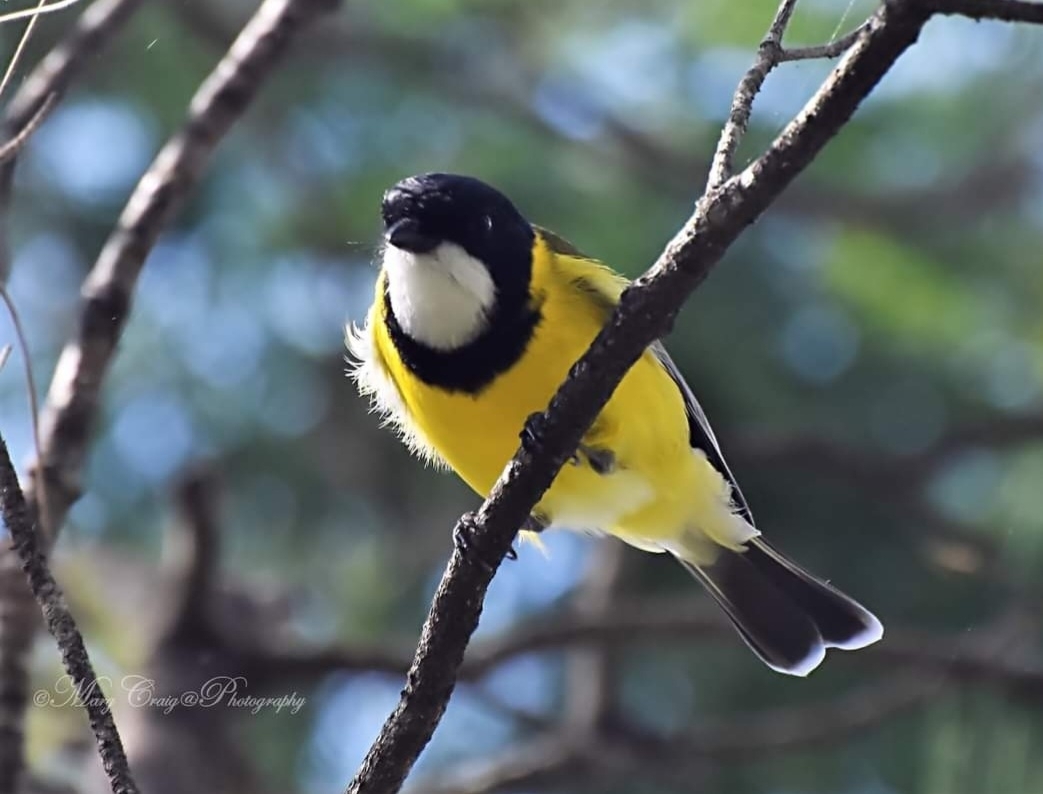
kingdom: Animalia
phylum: Chordata
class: Aves
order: Passeriformes
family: Pachycephalidae
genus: Pachycephala
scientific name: Pachycephala pectoralis
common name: Australian golden whistler
